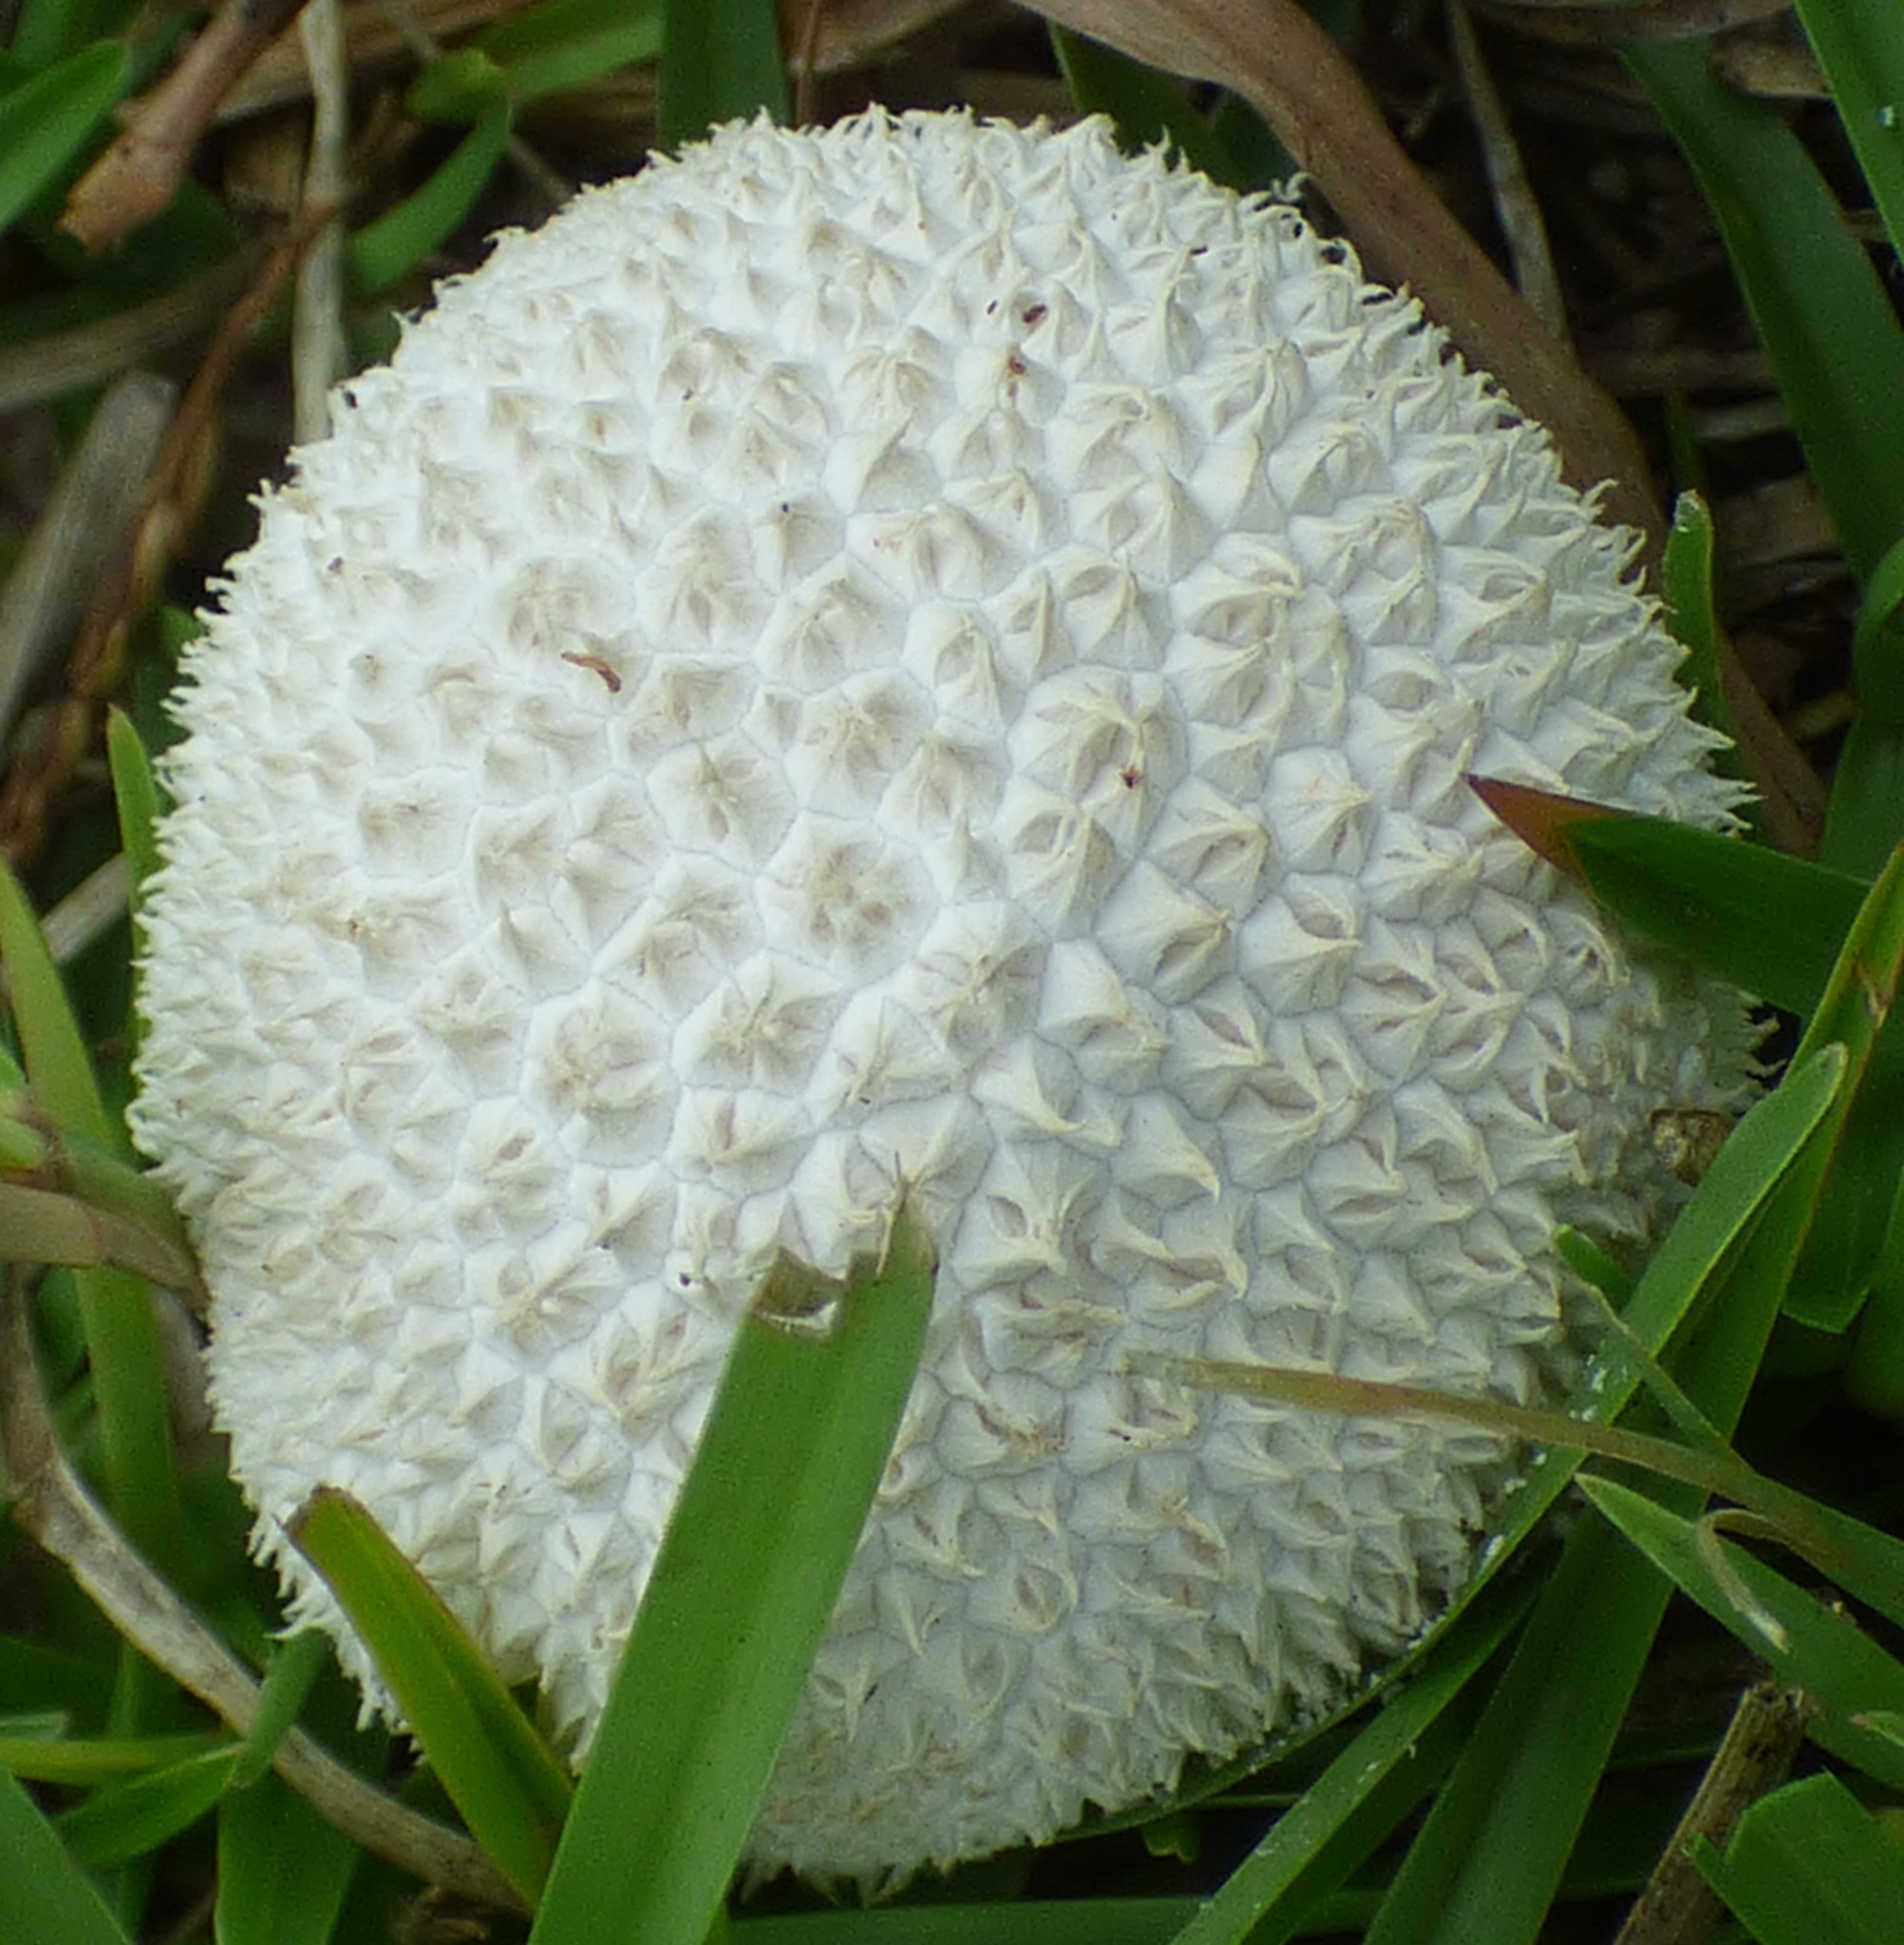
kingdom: Fungi
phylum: Basidiomycota
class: Agaricomycetes
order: Agaricales
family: Agaricaceae
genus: Lycoperdon
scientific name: Lycoperdon marginatum
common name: Peeling puffball
